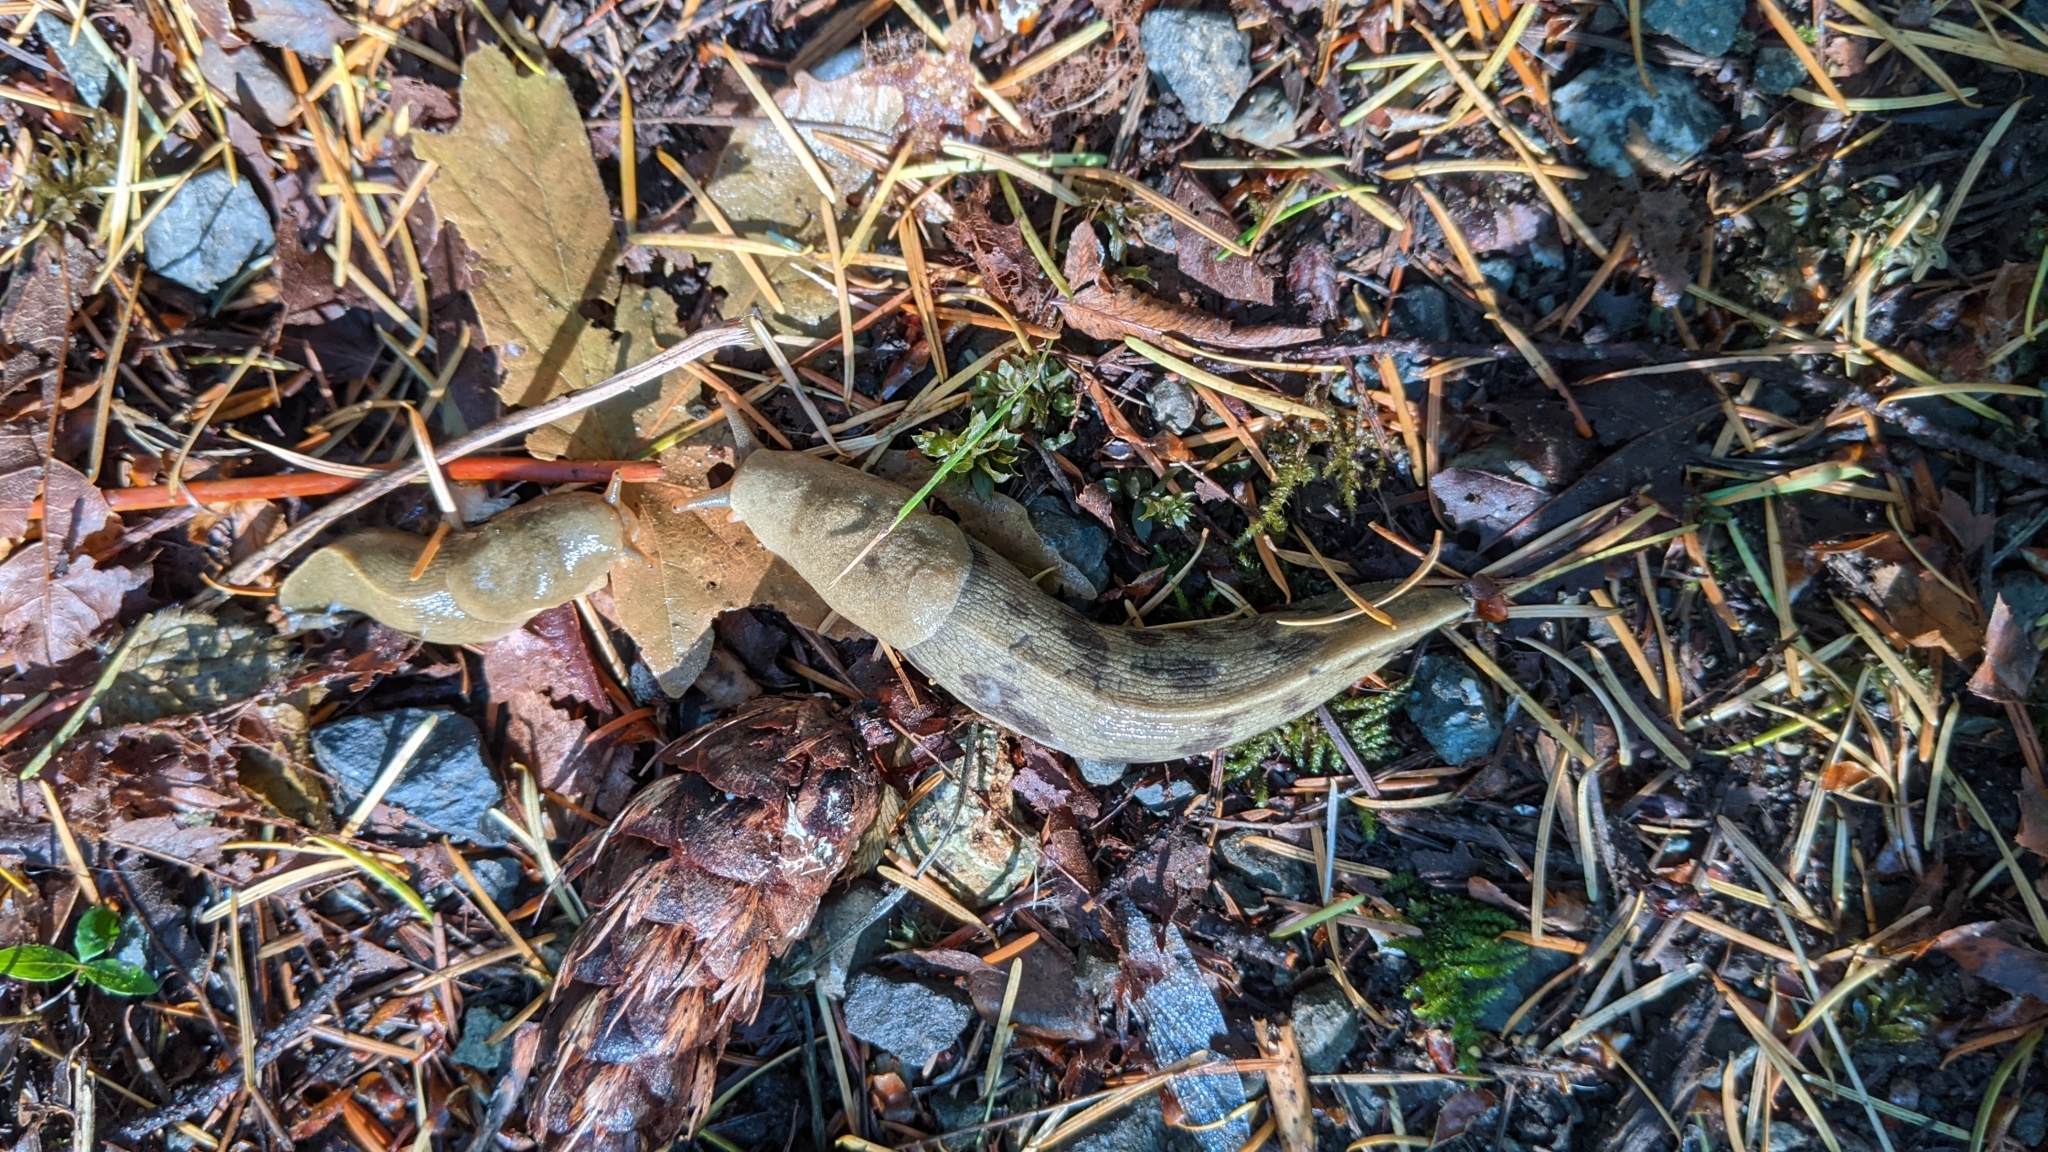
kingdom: Animalia
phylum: Mollusca
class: Gastropoda
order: Stylommatophora
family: Ariolimacidae
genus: Ariolimax
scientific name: Ariolimax columbianus
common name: Pacific banana slug
